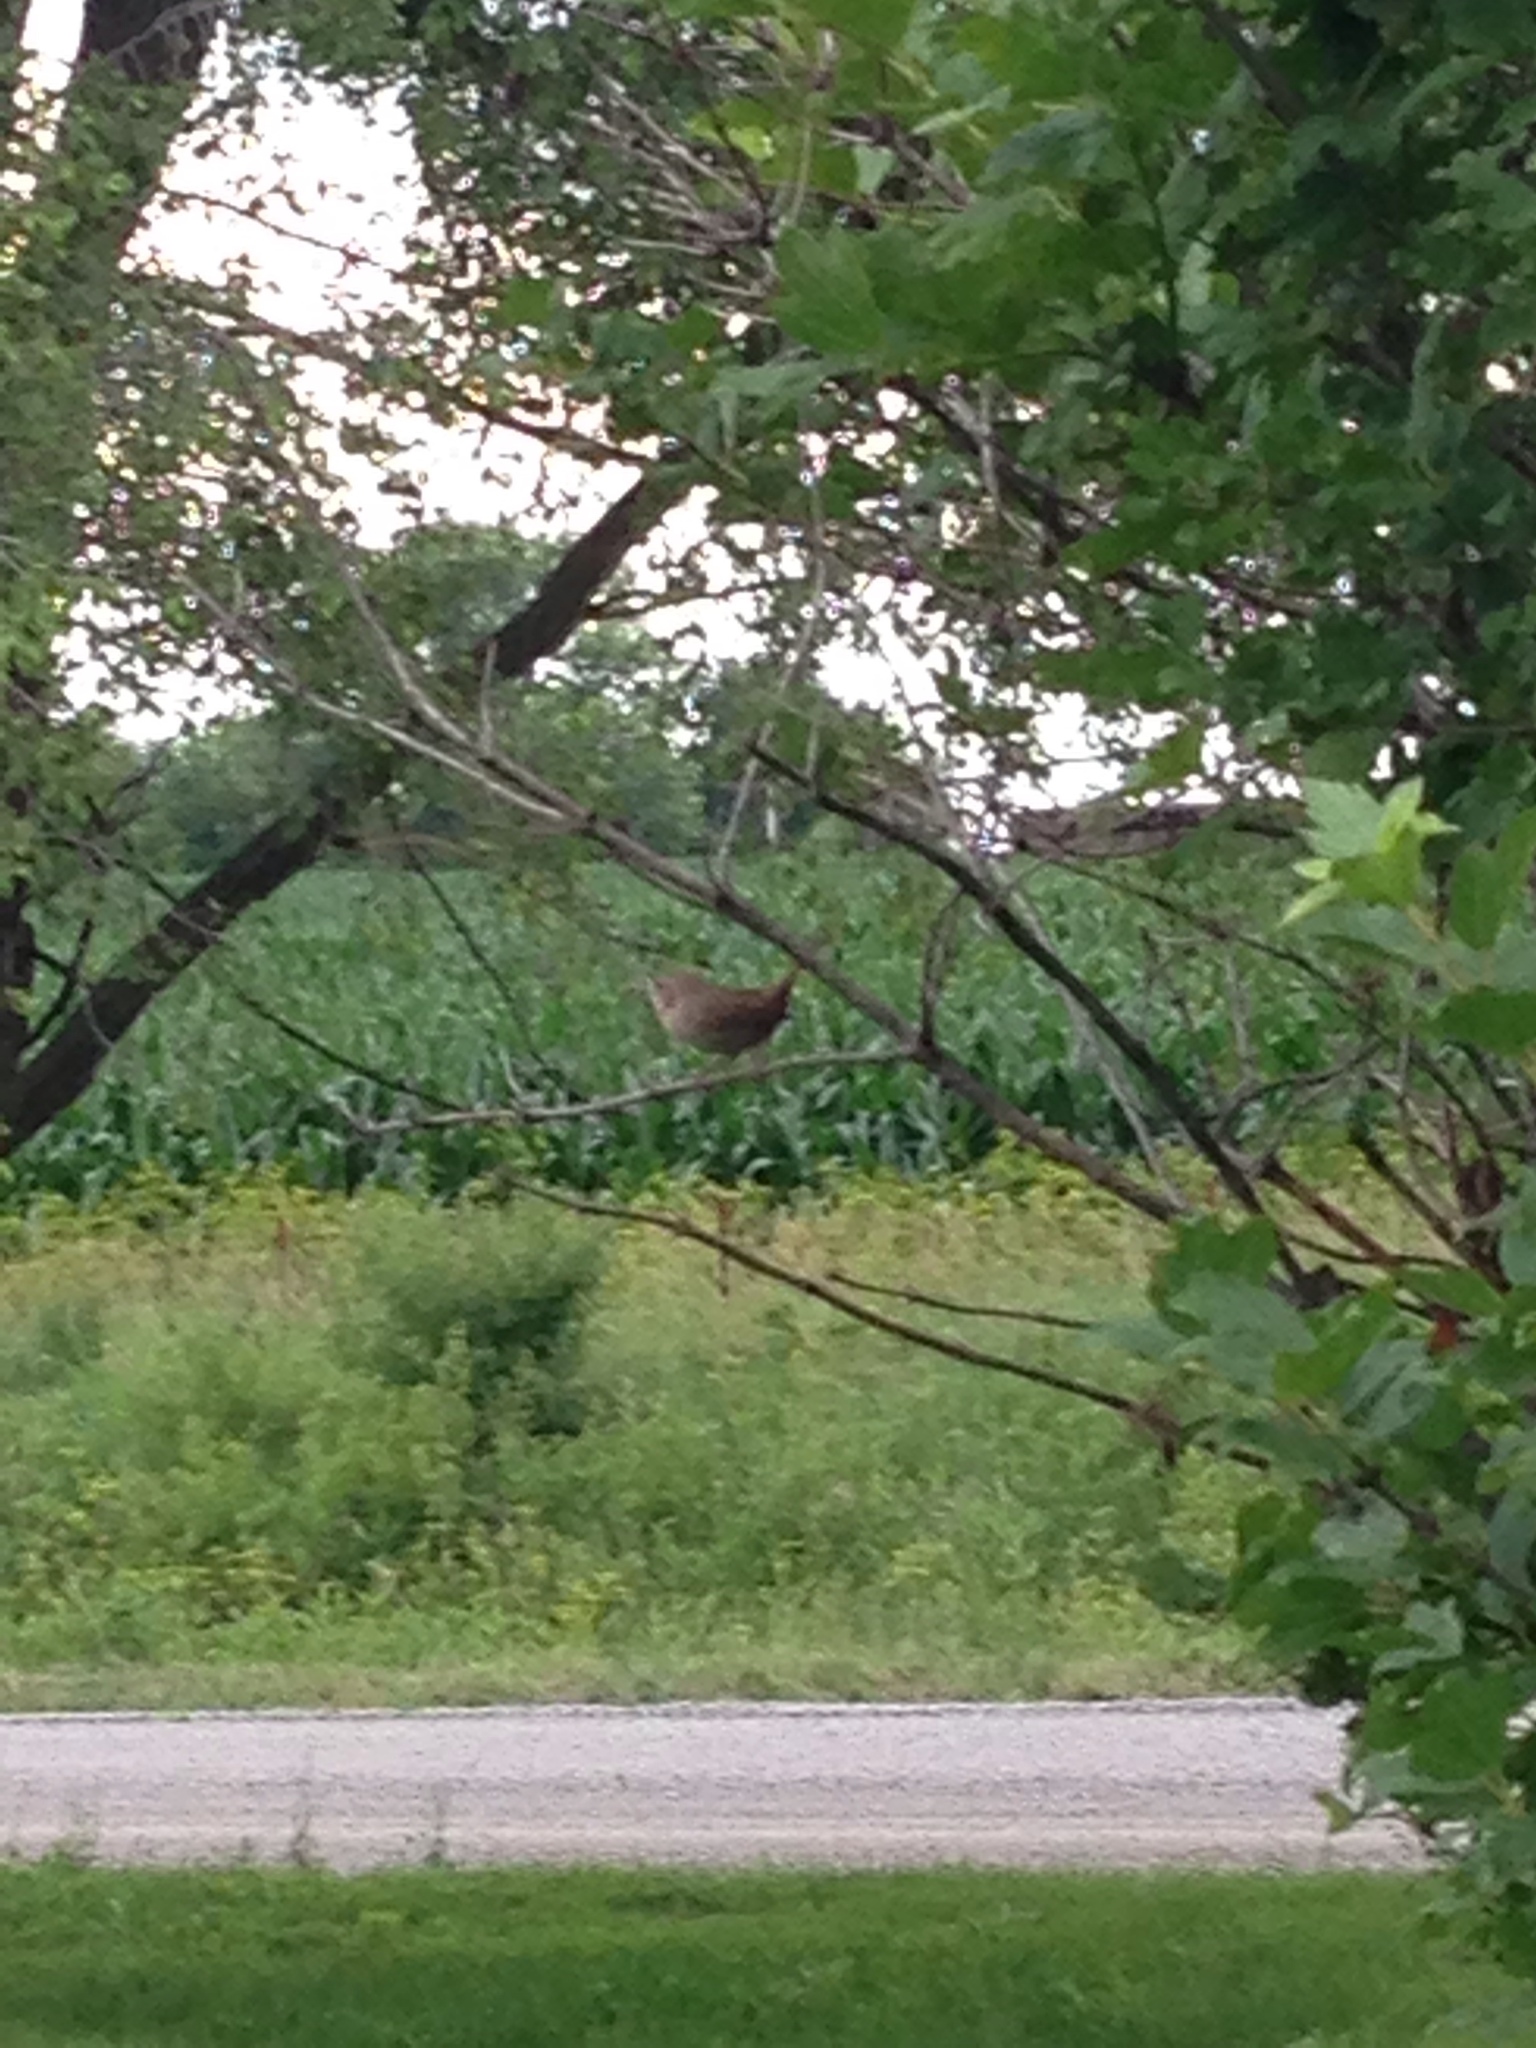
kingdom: Animalia
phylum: Chordata
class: Aves
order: Passeriformes
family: Troglodytidae
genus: Troglodytes
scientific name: Troglodytes aedon
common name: House wren
